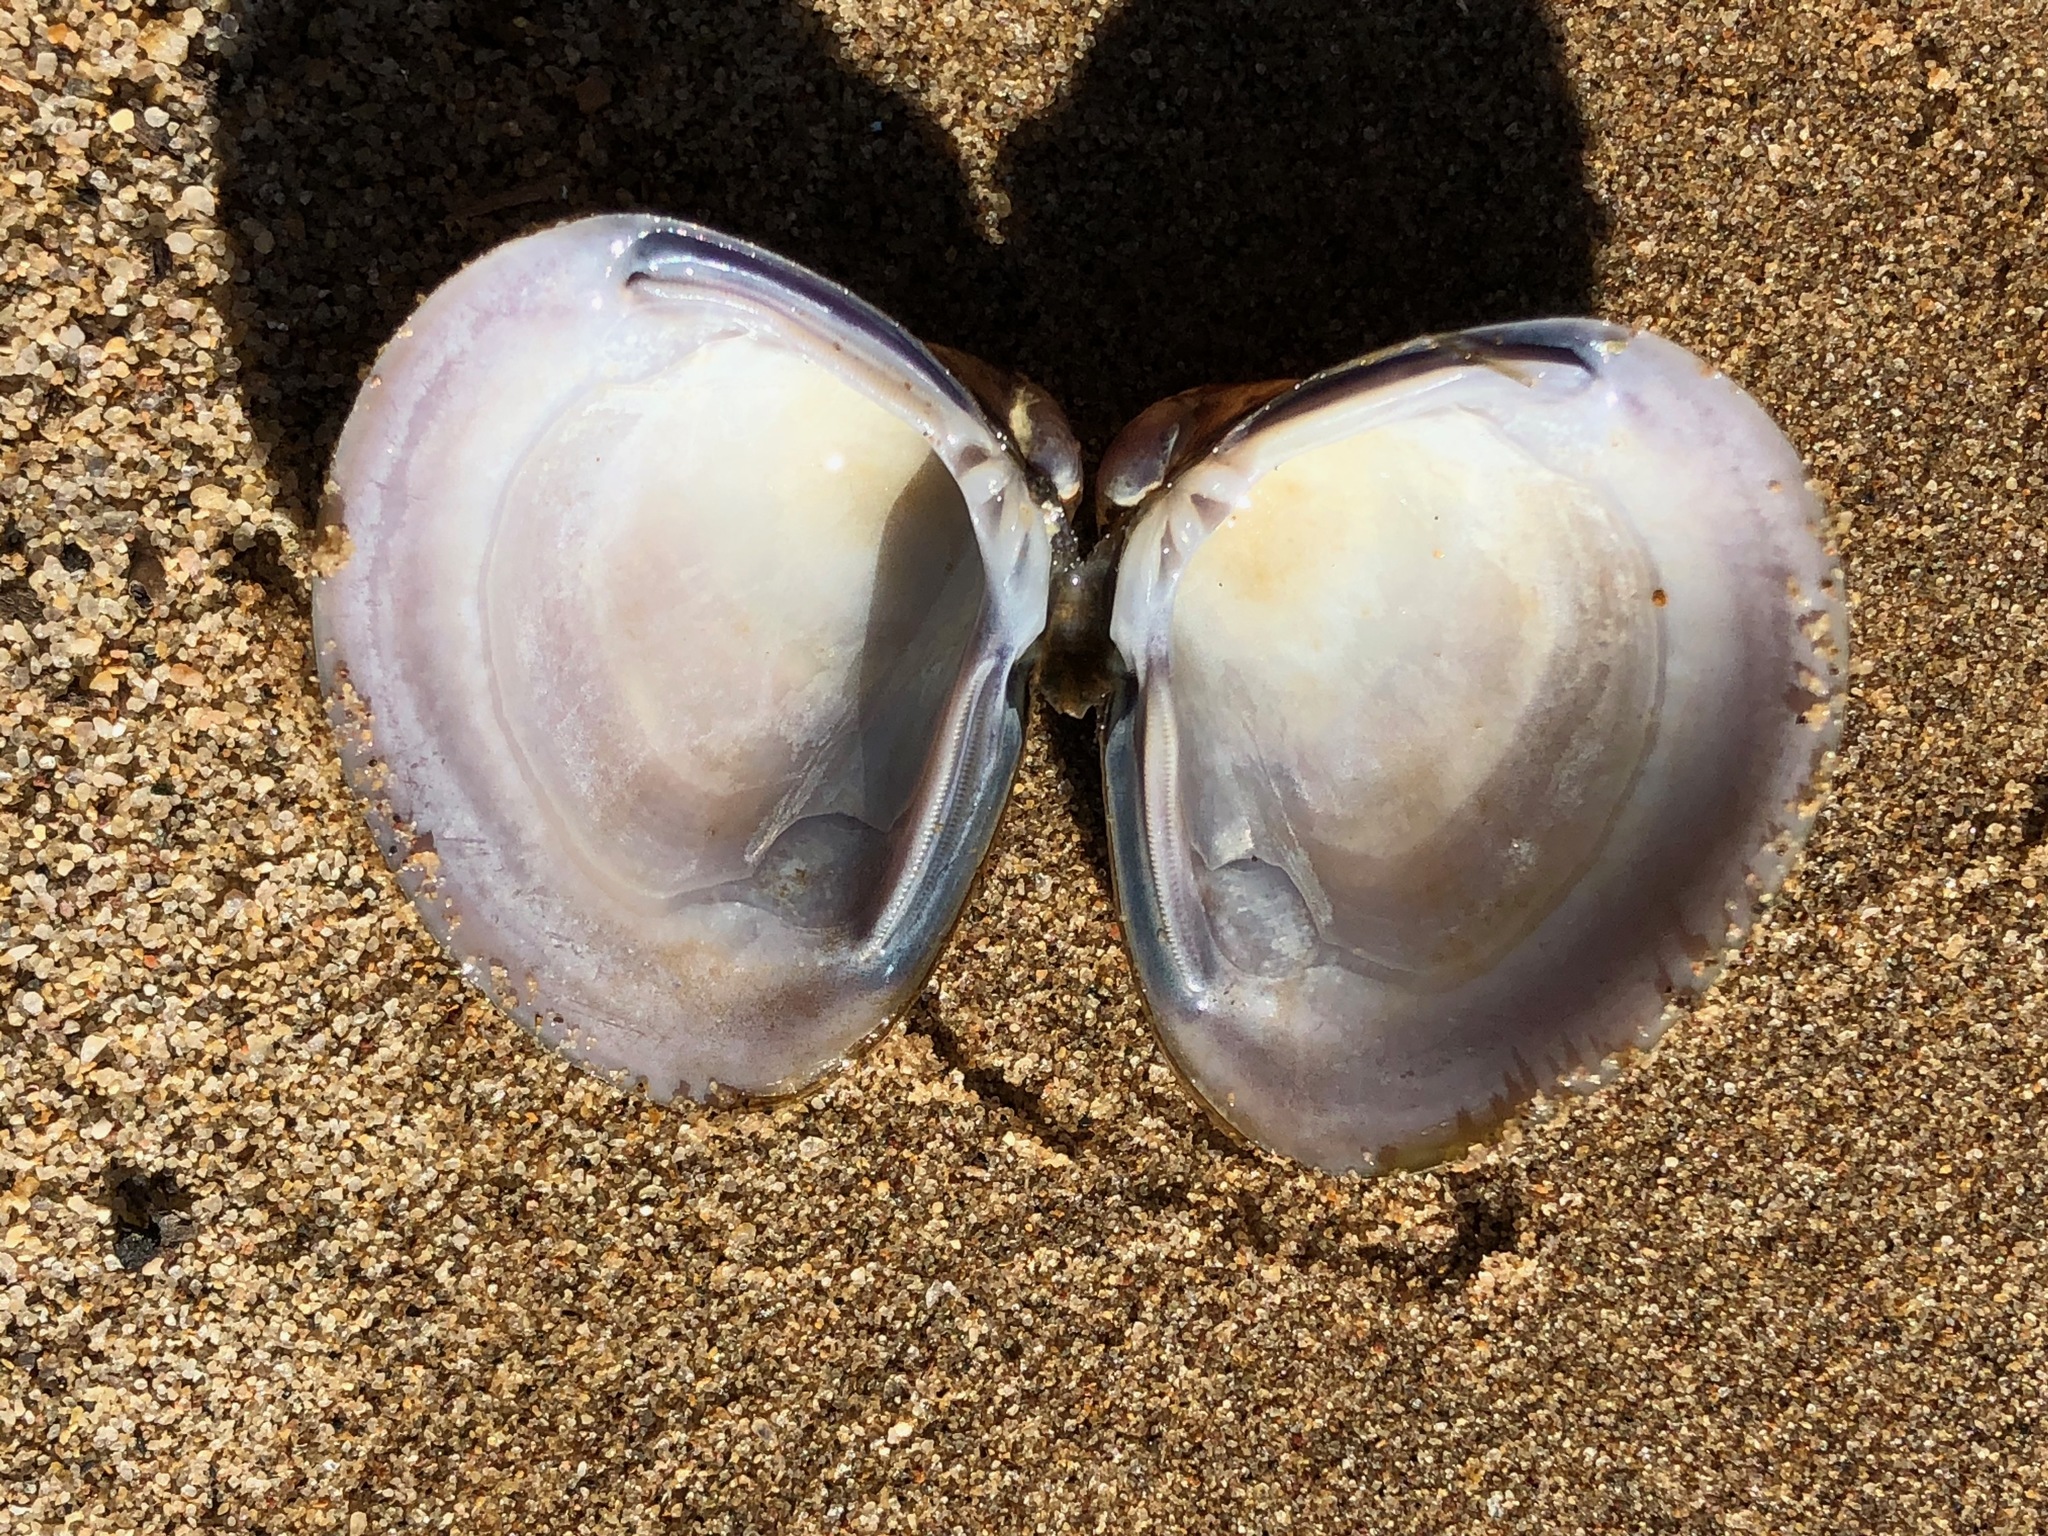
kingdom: Animalia
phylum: Mollusca
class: Bivalvia
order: Venerida
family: Cyrenidae
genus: Corbicula
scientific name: Corbicula fluminea
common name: Asian clam
